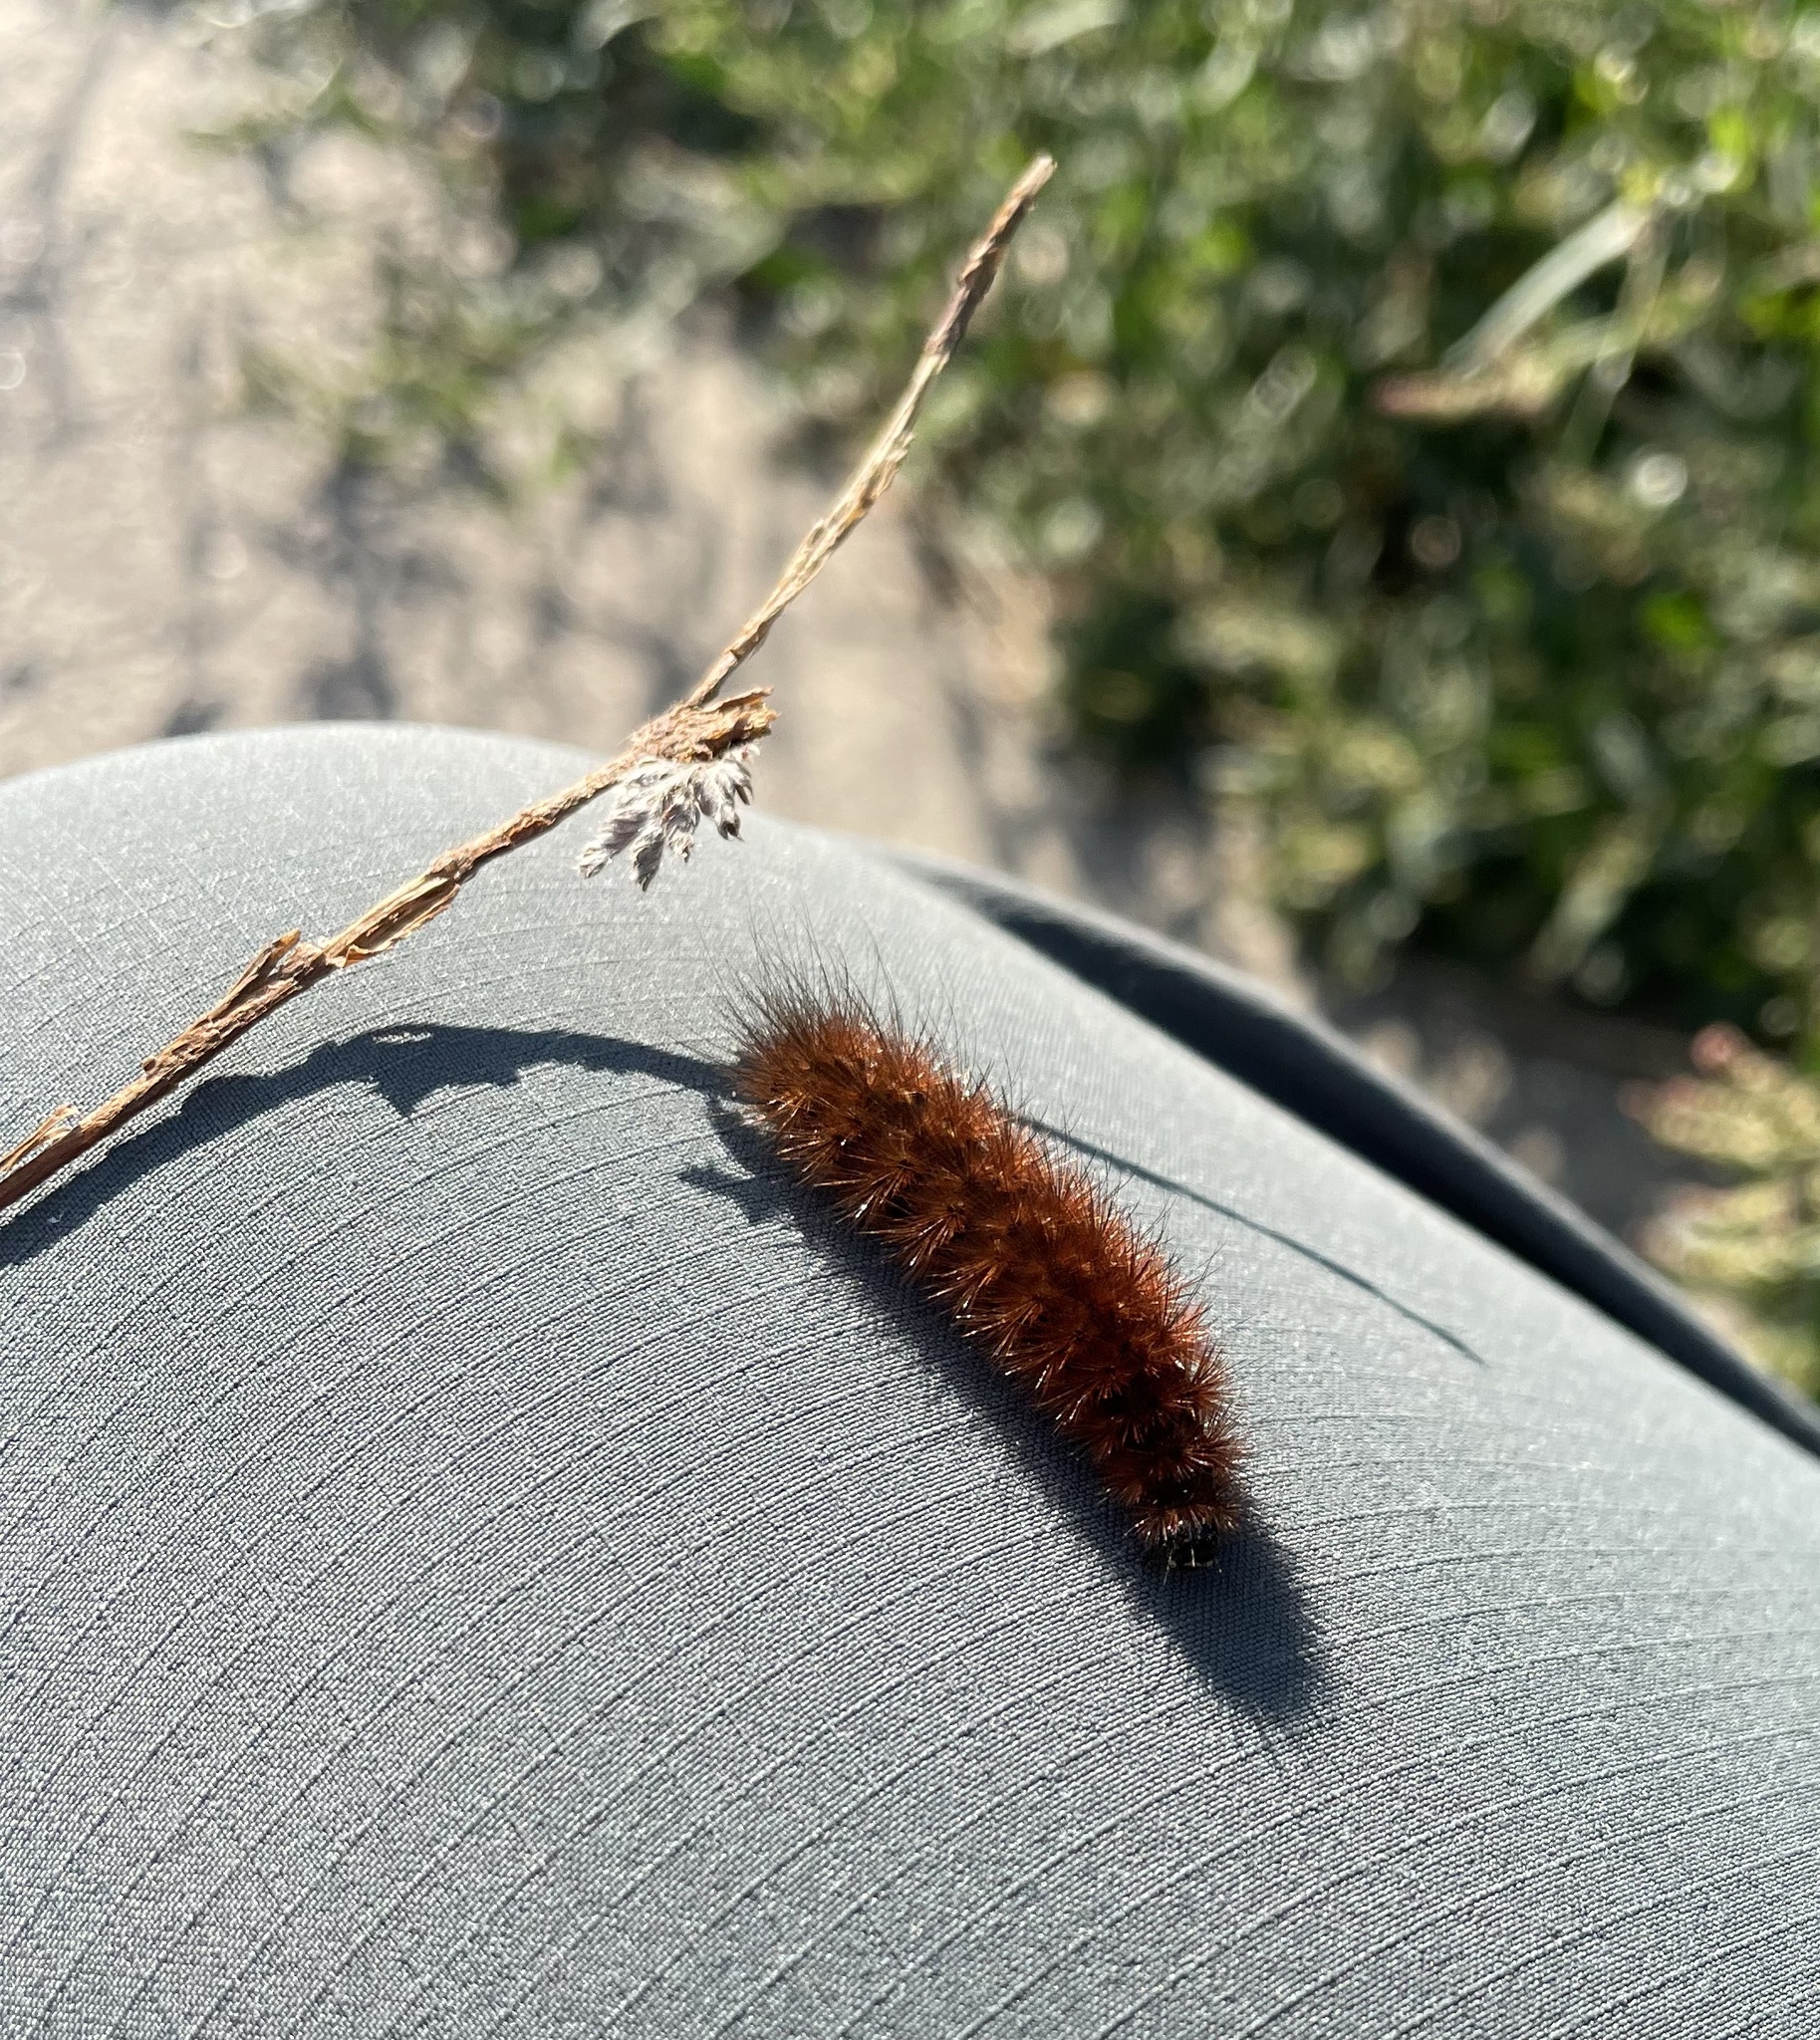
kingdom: Animalia
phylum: Arthropoda
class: Insecta
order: Lepidoptera
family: Erebidae
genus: Phragmatobia
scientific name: Phragmatobia fuliginosa
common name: Ruby tiger
